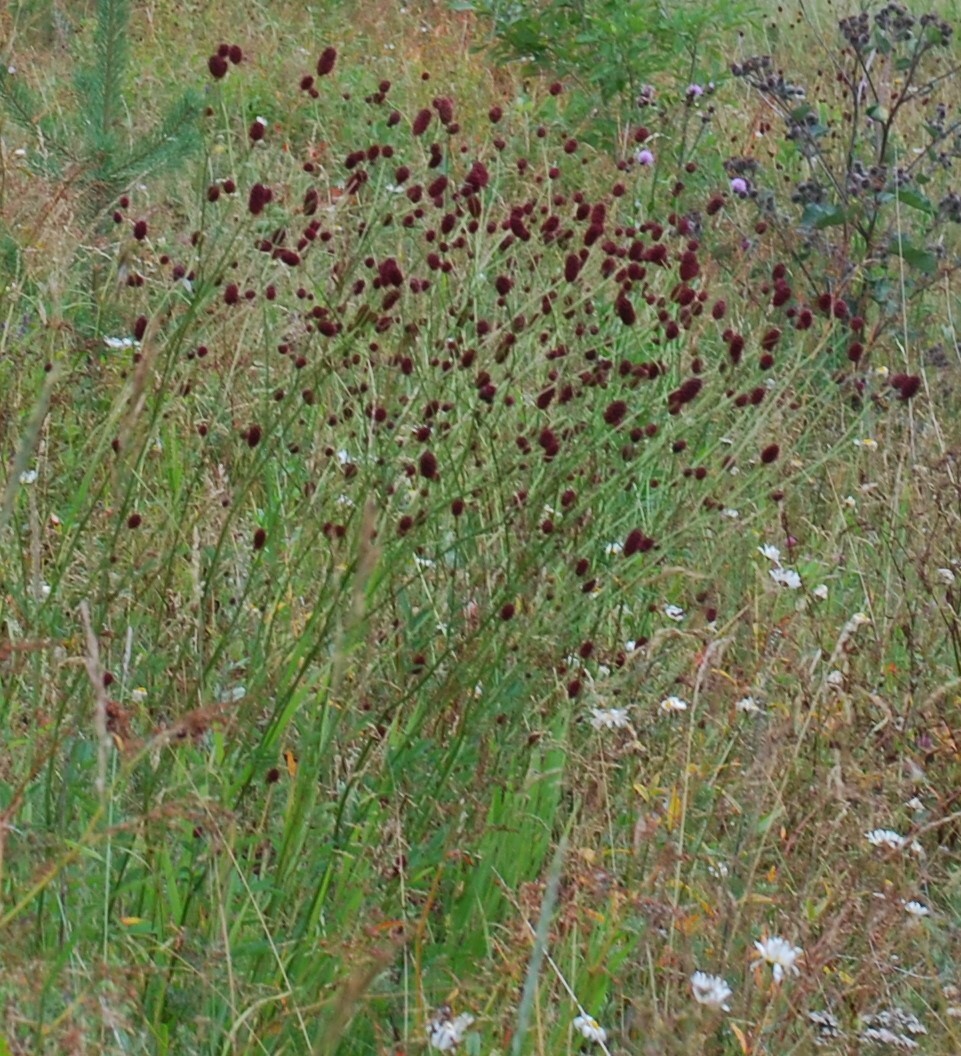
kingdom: Plantae
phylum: Tracheophyta
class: Magnoliopsida
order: Rosales
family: Rosaceae
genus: Sanguisorba
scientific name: Sanguisorba officinalis
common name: Great burnet
